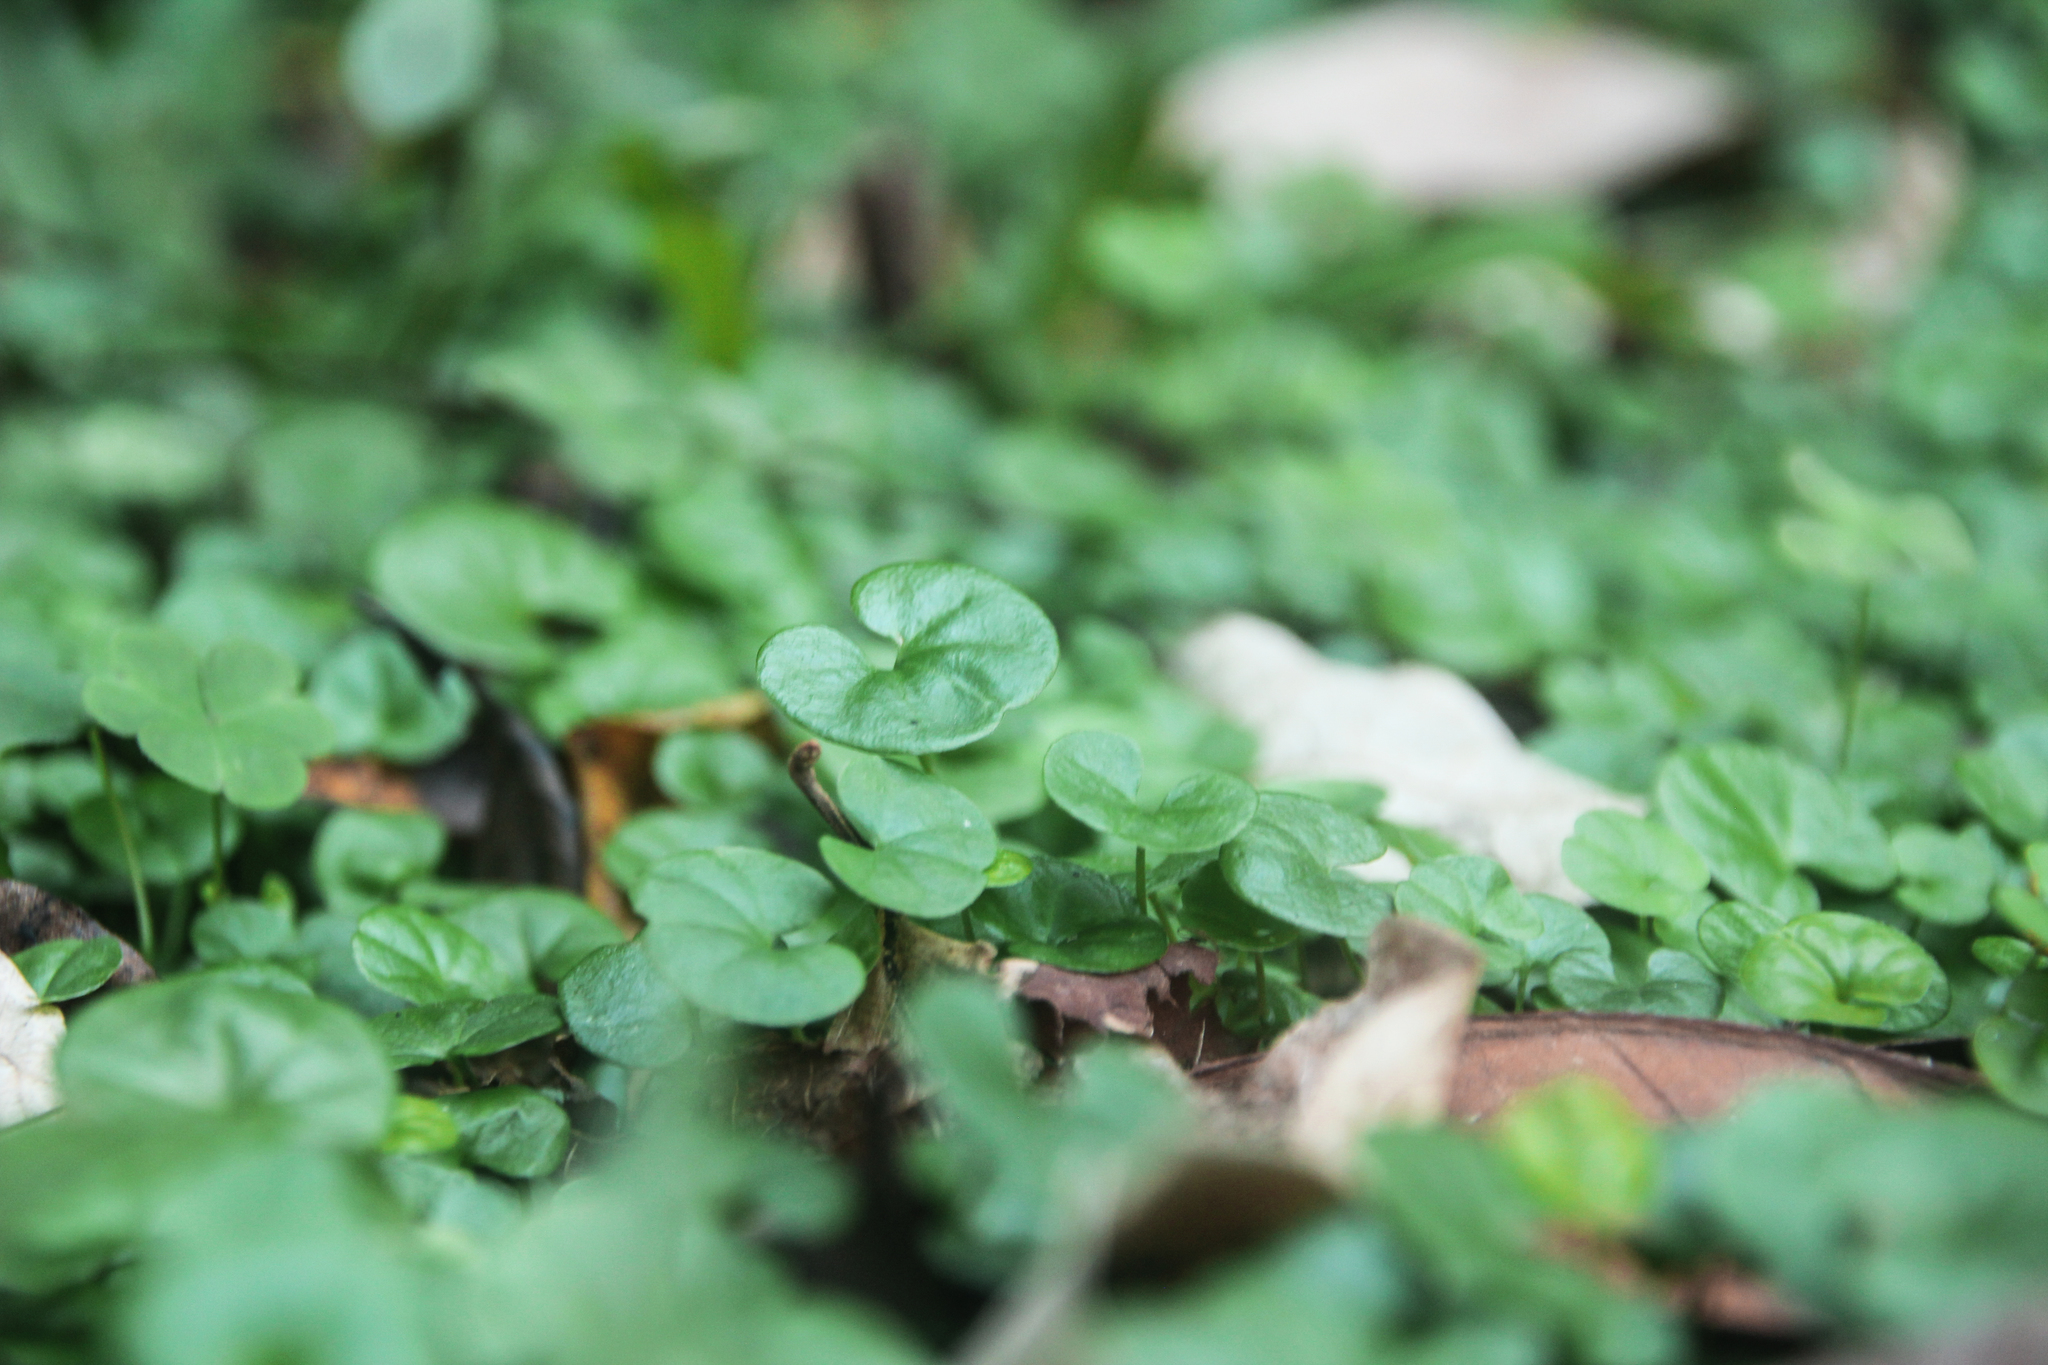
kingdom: Plantae
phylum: Tracheophyta
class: Magnoliopsida
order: Solanales
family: Convolvulaceae
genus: Dichondra
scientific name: Dichondra micrantha
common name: Kidneyweed
